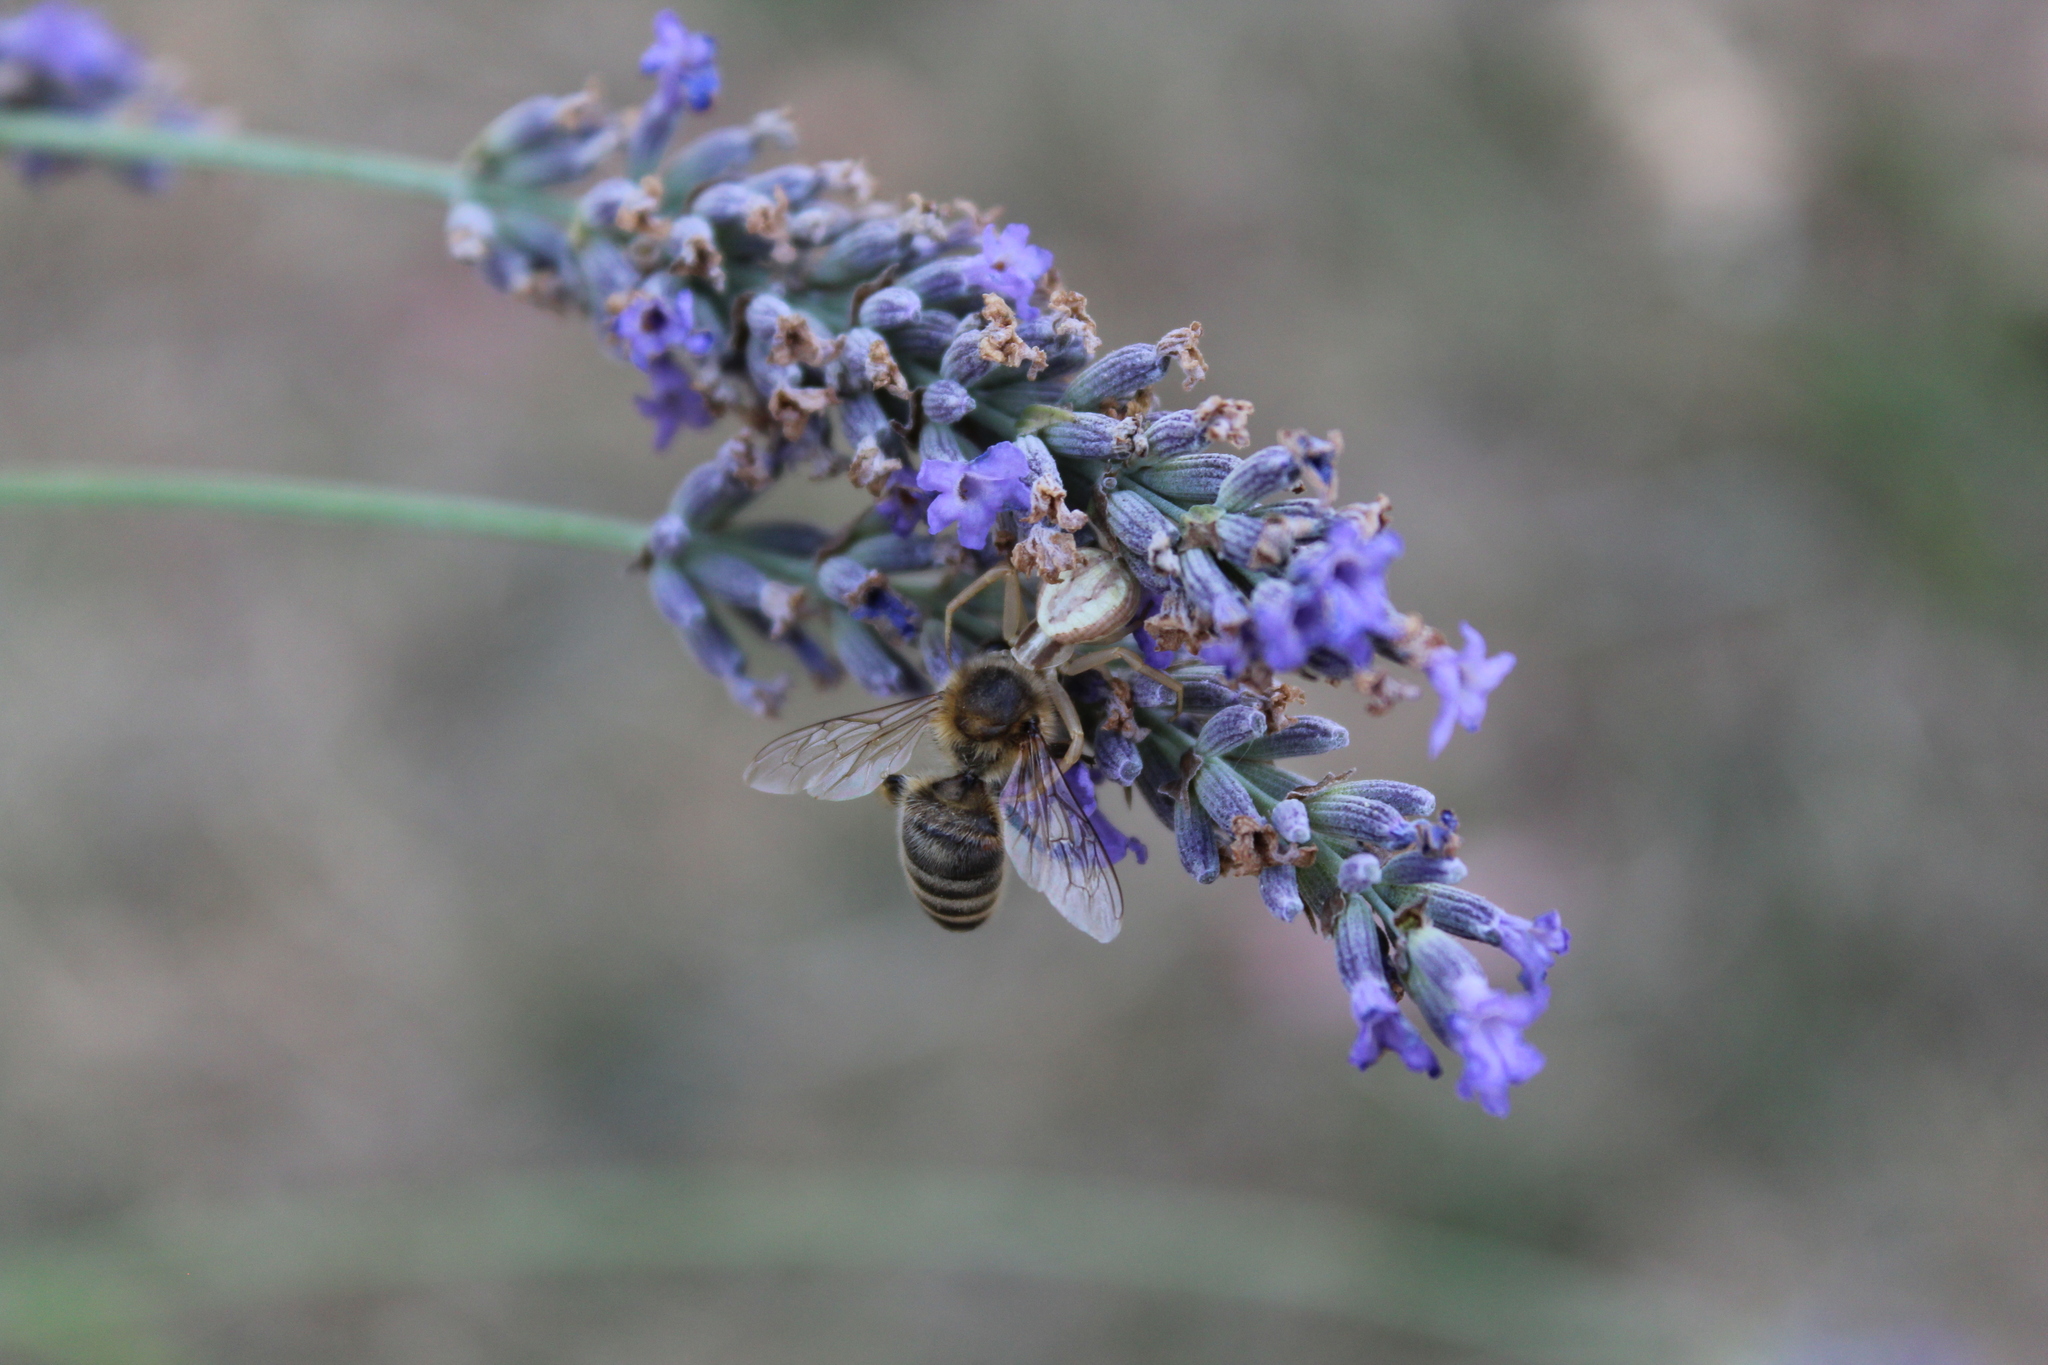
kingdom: Animalia
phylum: Arthropoda
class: Arachnida
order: Araneae
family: Thomisidae
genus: Runcinia
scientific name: Runcinia grammica
